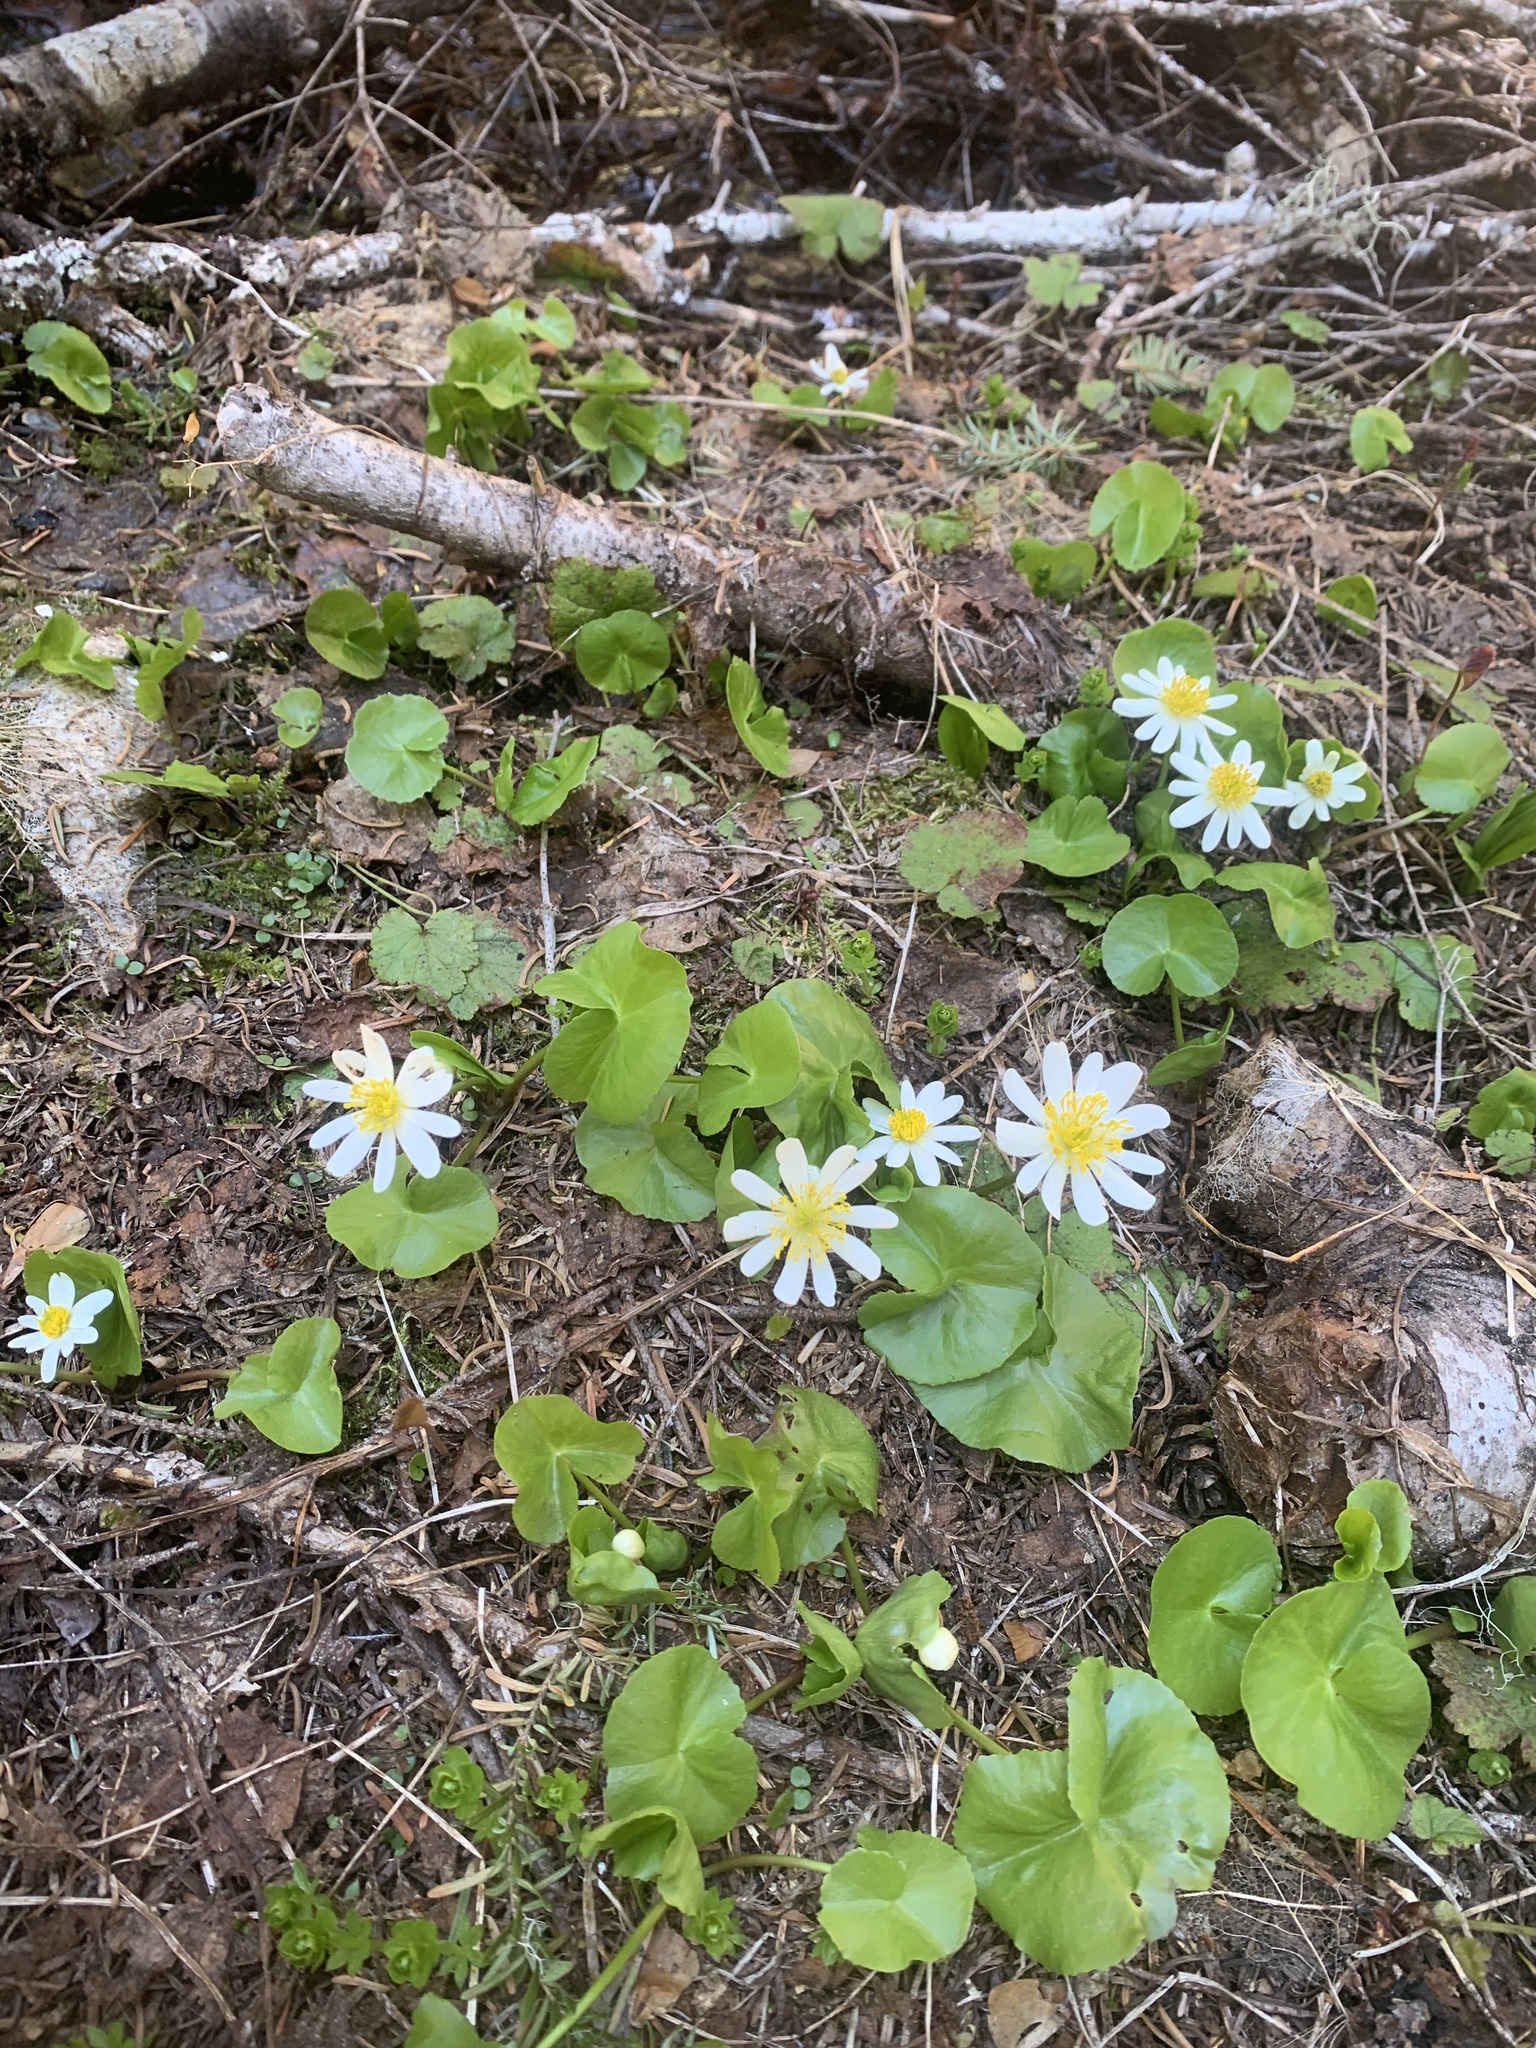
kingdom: Plantae
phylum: Tracheophyta
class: Magnoliopsida
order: Ranunculales
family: Ranunculaceae
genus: Caltha
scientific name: Caltha biflora
